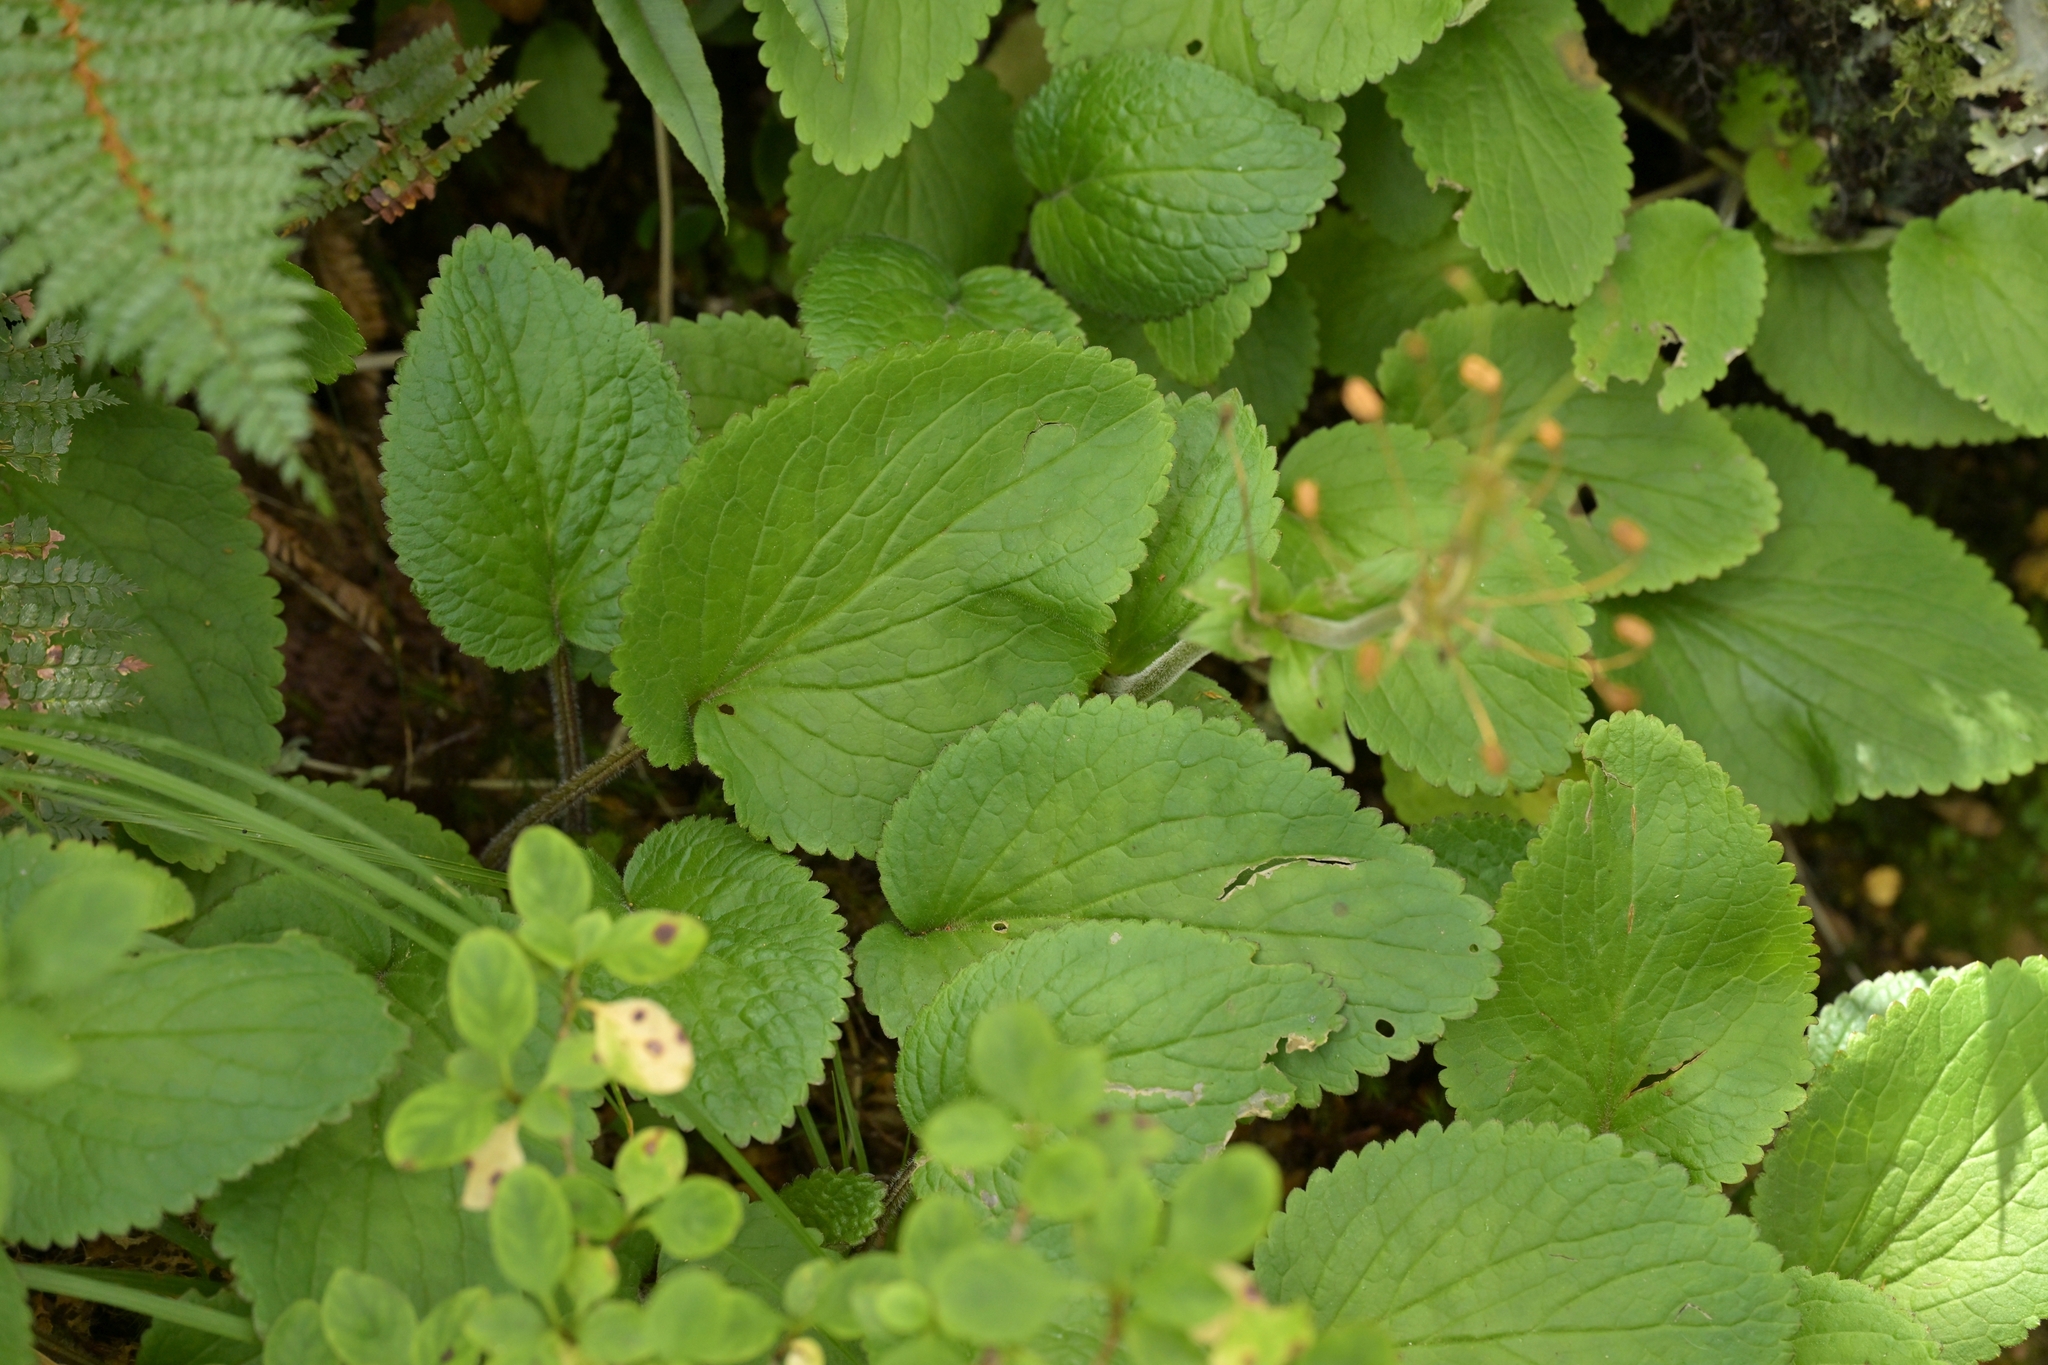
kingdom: Plantae
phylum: Tracheophyta
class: Magnoliopsida
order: Lamiales
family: Plantaginaceae
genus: Ourisia
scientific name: Ourisia macrophylla
